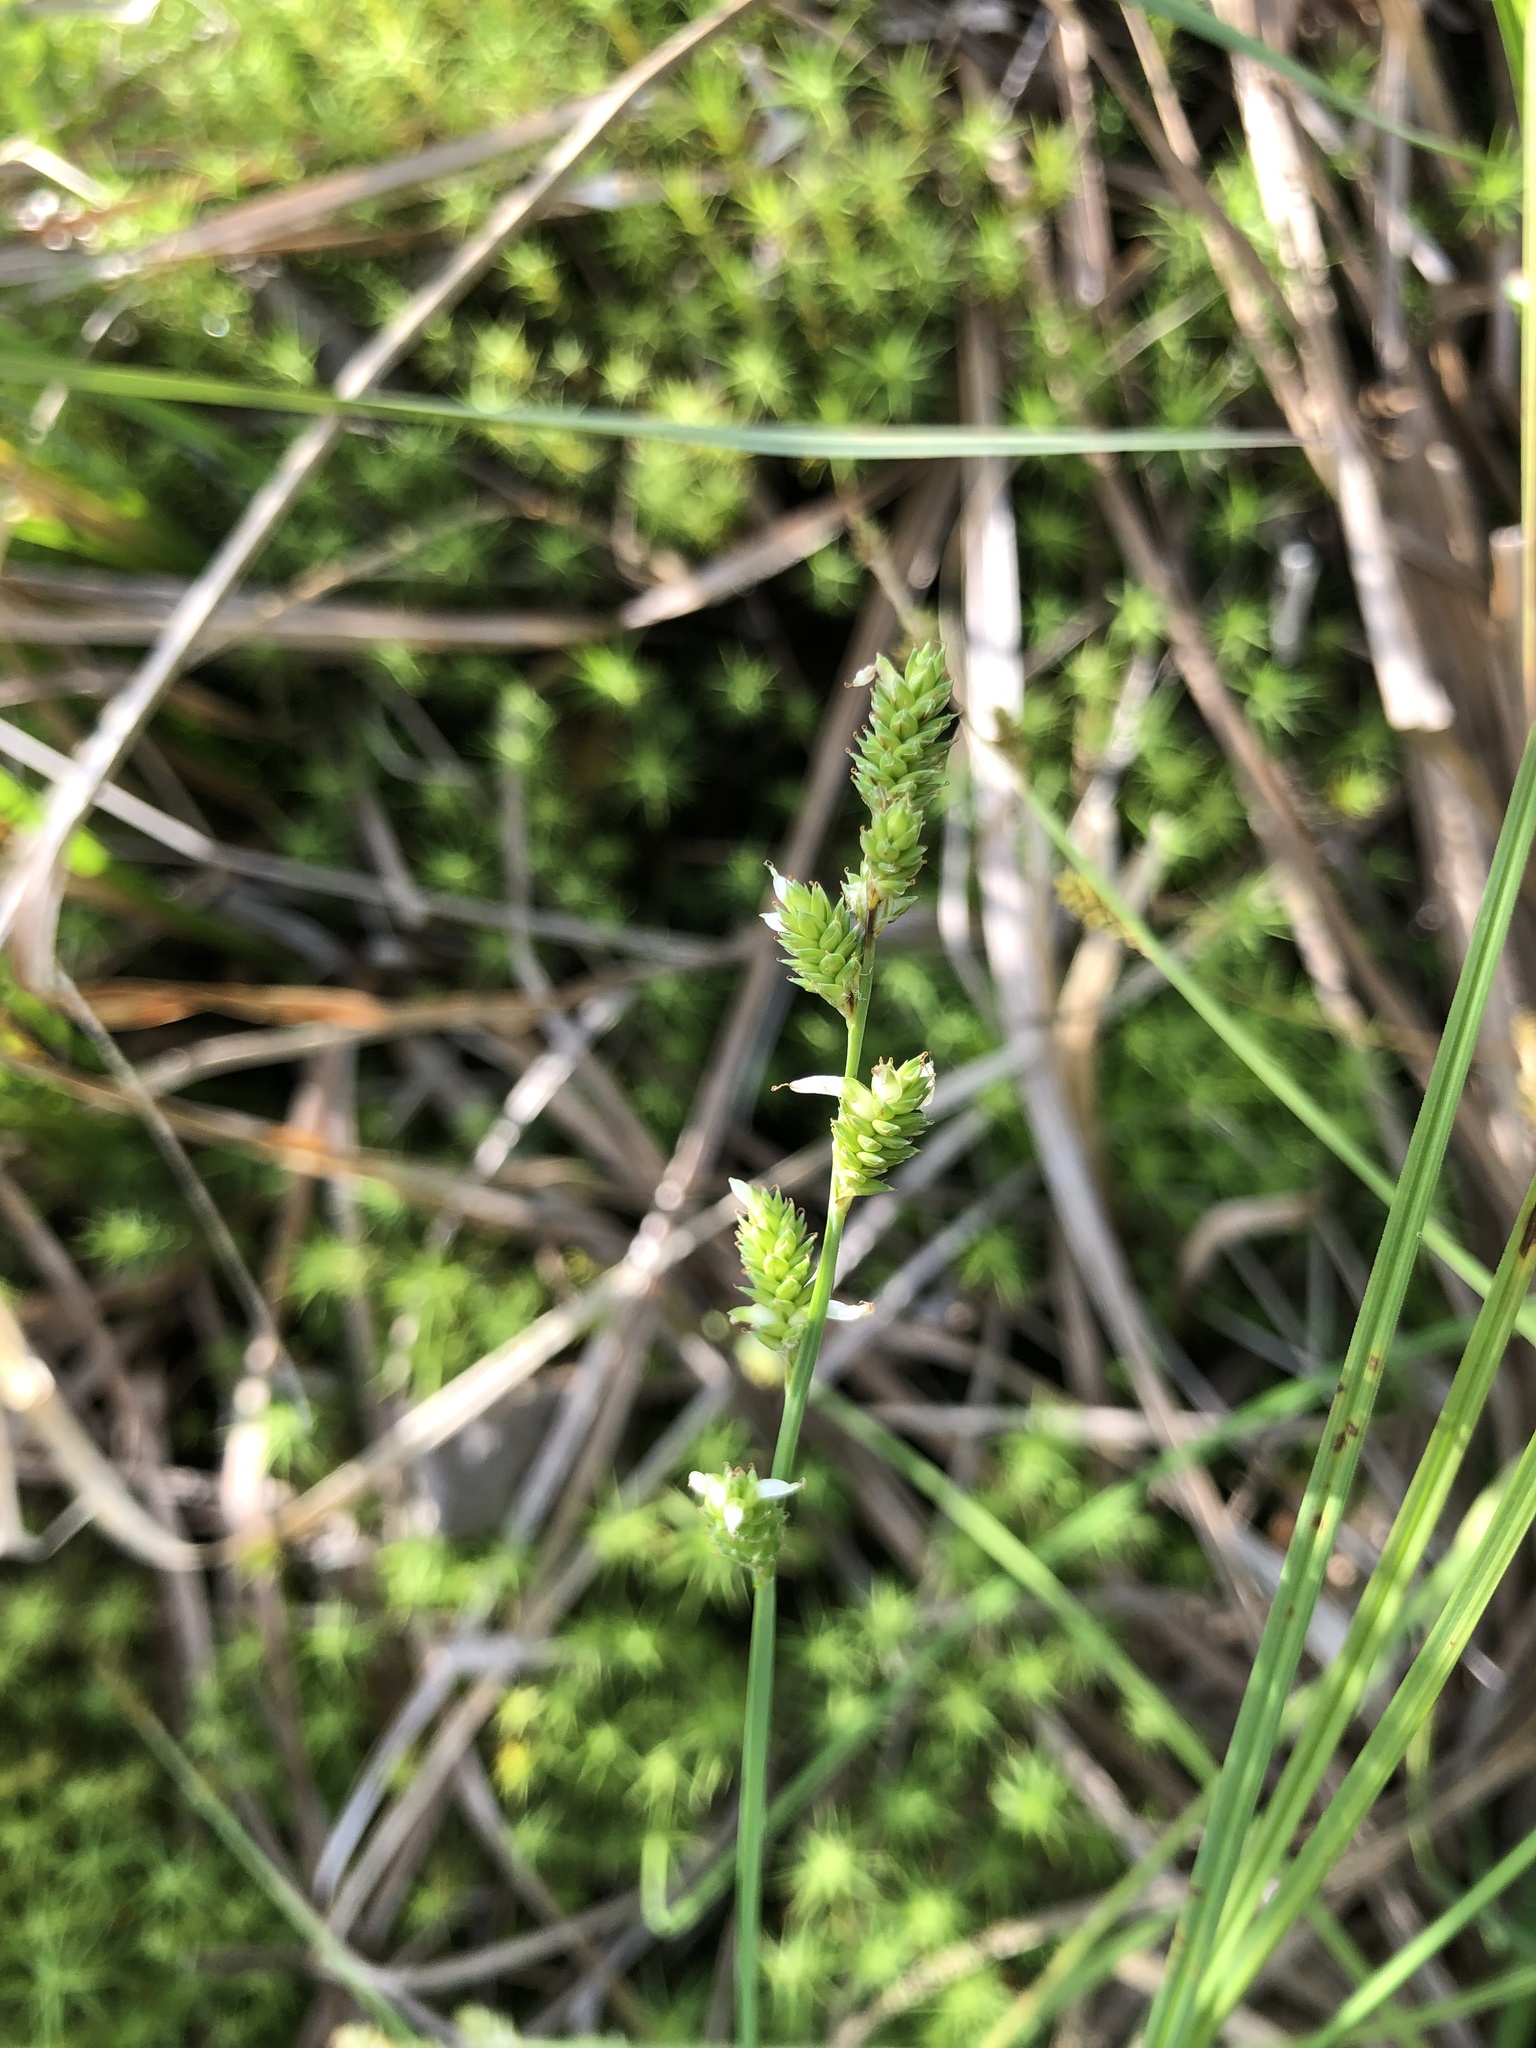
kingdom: Plantae
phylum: Tracheophyta
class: Liliopsida
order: Poales
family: Cyperaceae
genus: Carex
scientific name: Carex canescens
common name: White sedge
